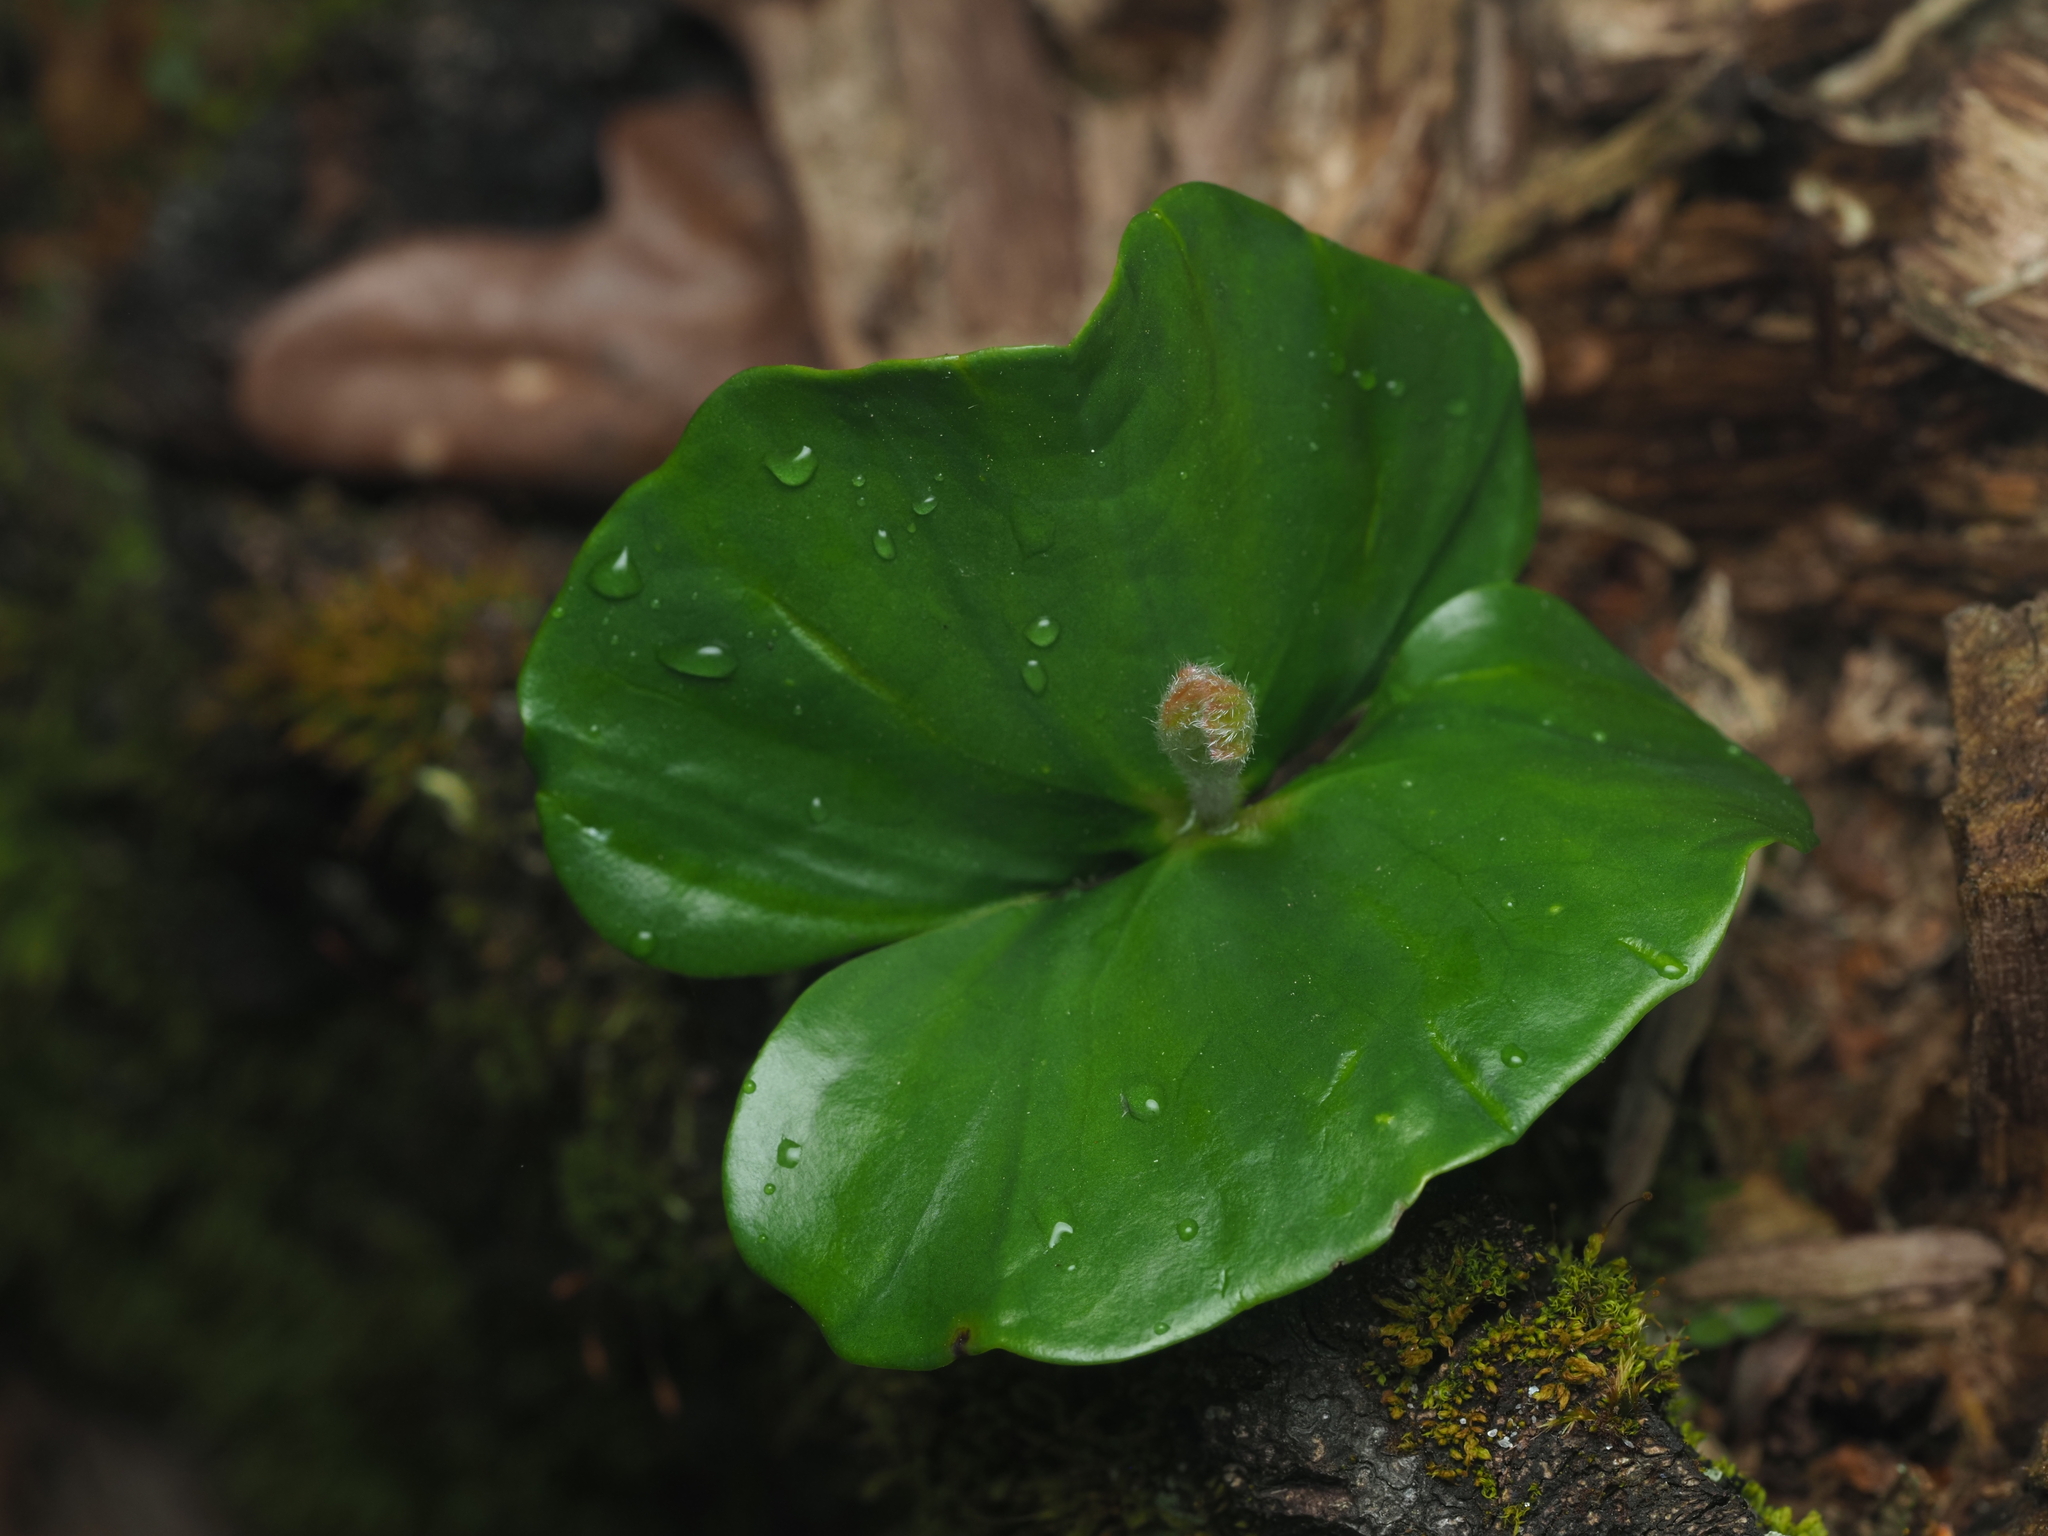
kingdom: Plantae
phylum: Tracheophyta
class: Magnoliopsida
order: Fagales
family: Fagaceae
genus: Fagus
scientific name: Fagus sylvatica
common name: Beech
